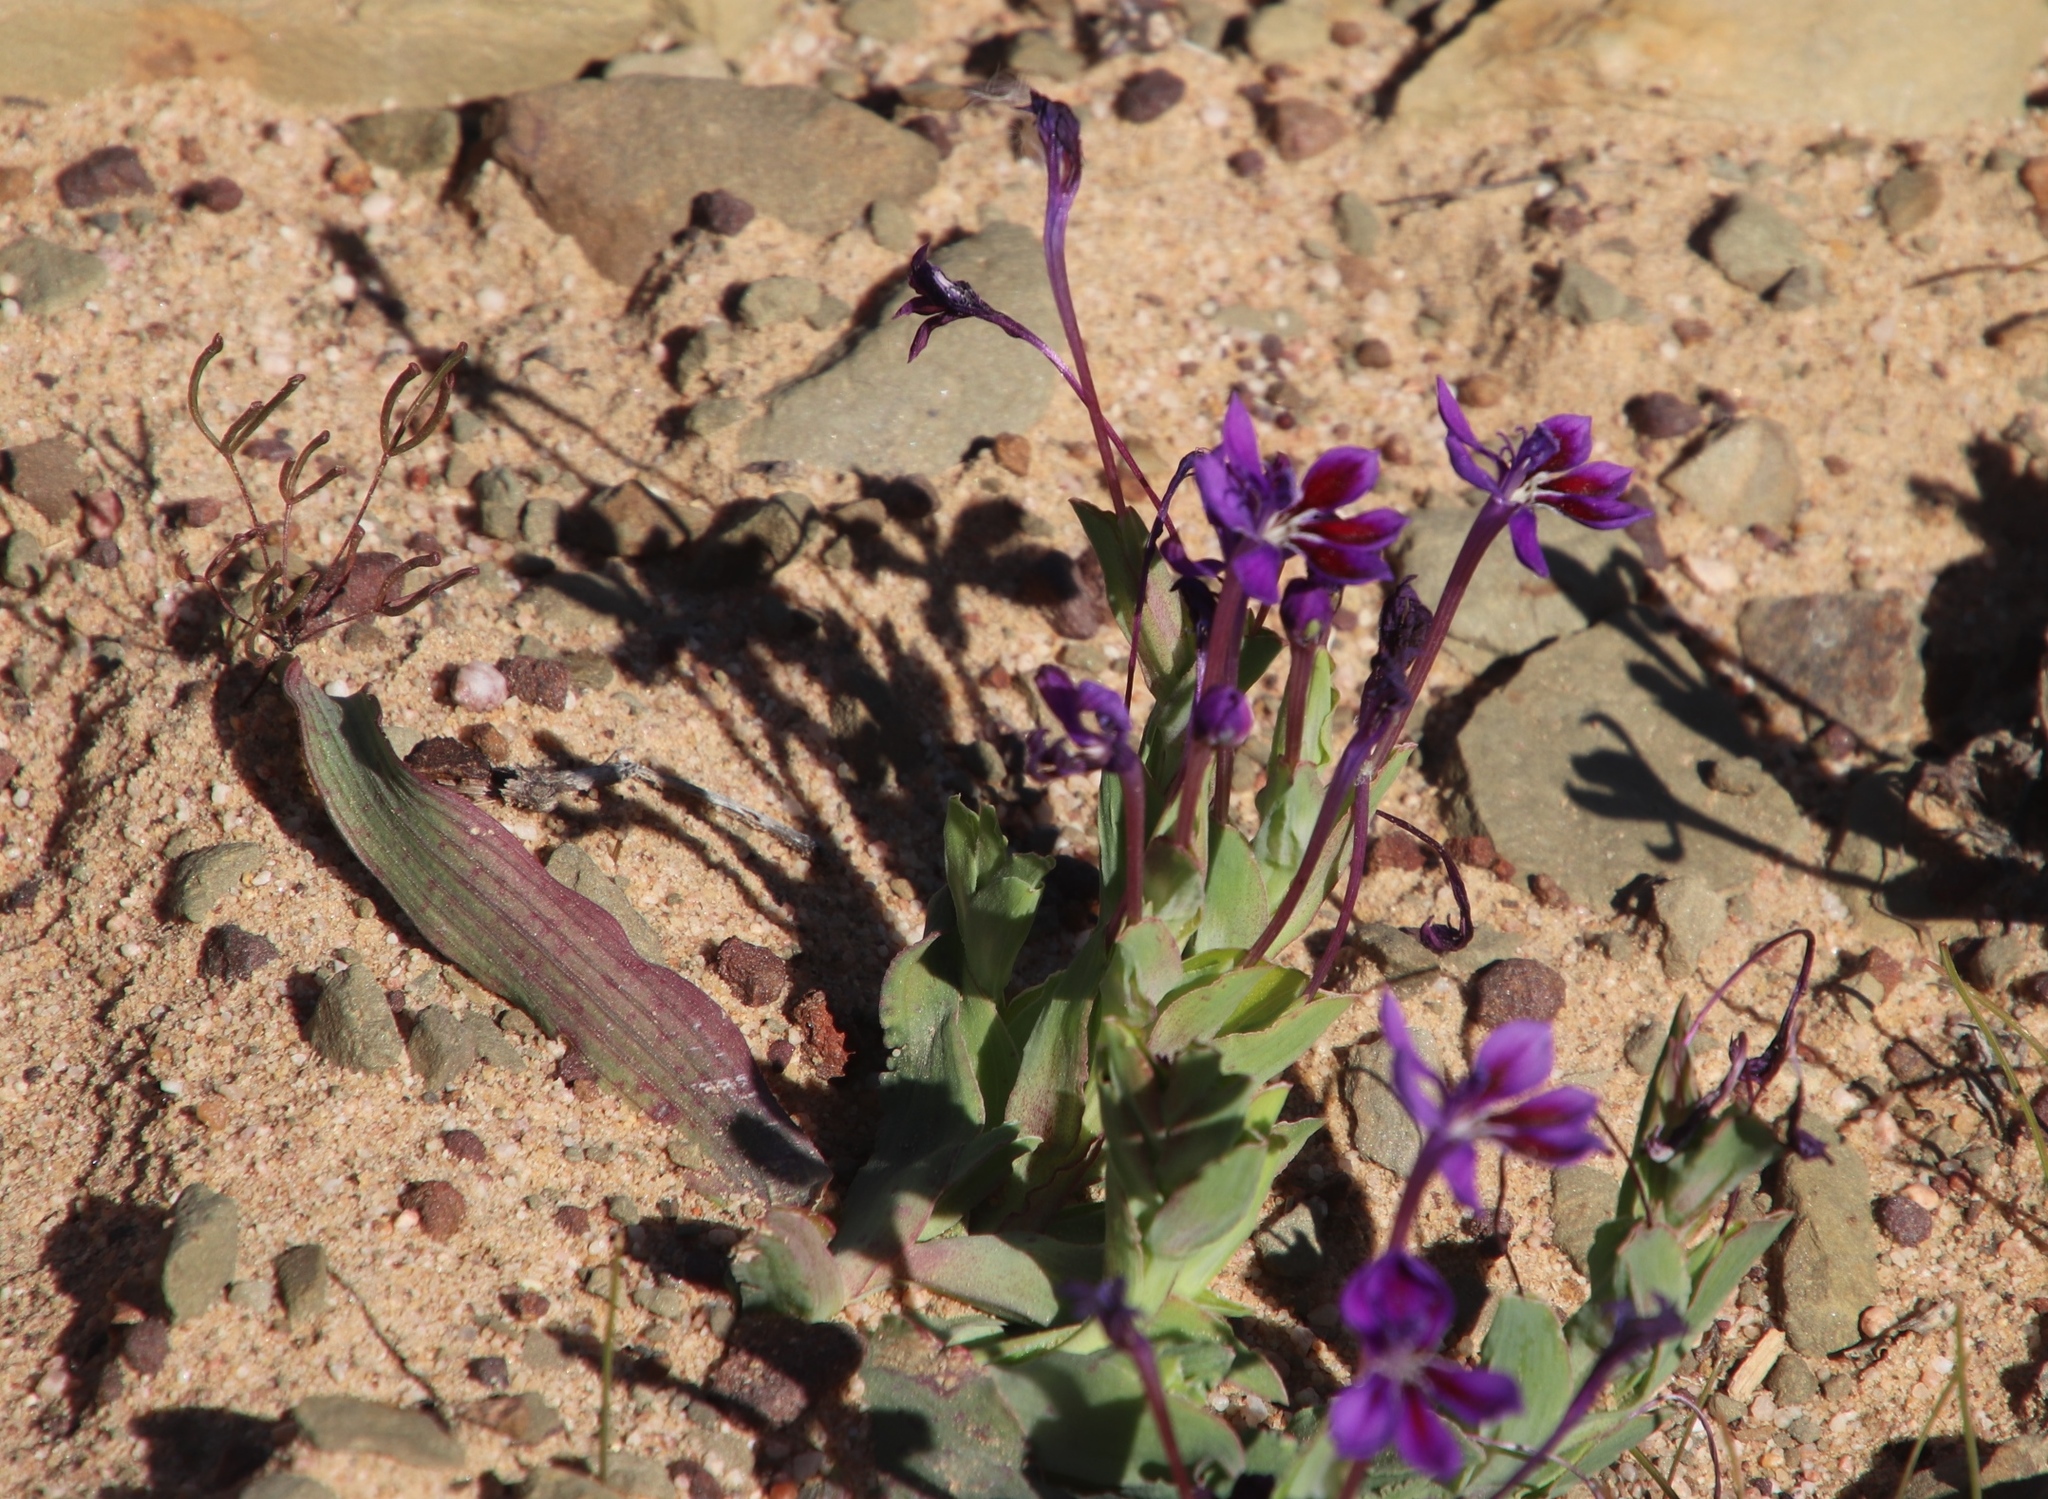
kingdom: Plantae
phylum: Tracheophyta
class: Liliopsida
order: Asparagales
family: Iridaceae
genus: Lapeirousia
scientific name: Lapeirousia violacea
